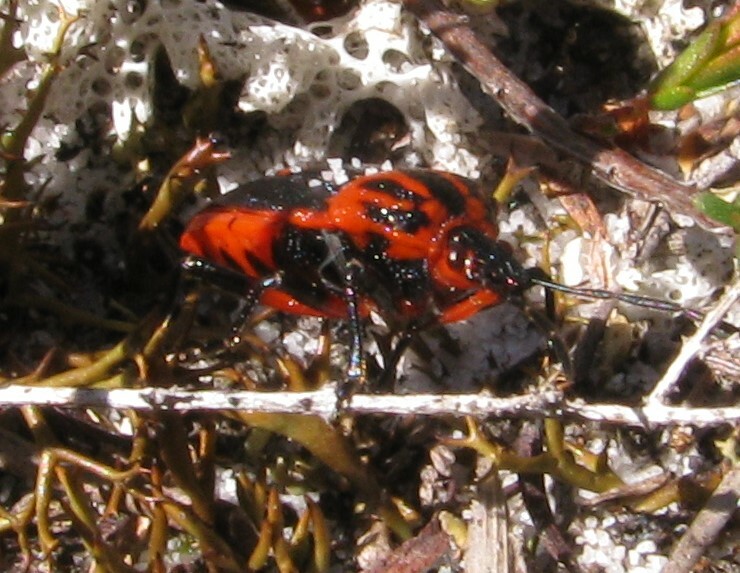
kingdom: Animalia
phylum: Arthropoda
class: Insecta
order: Hemiptera
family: Pentatomidae
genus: Jalloides
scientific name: Jalloides
